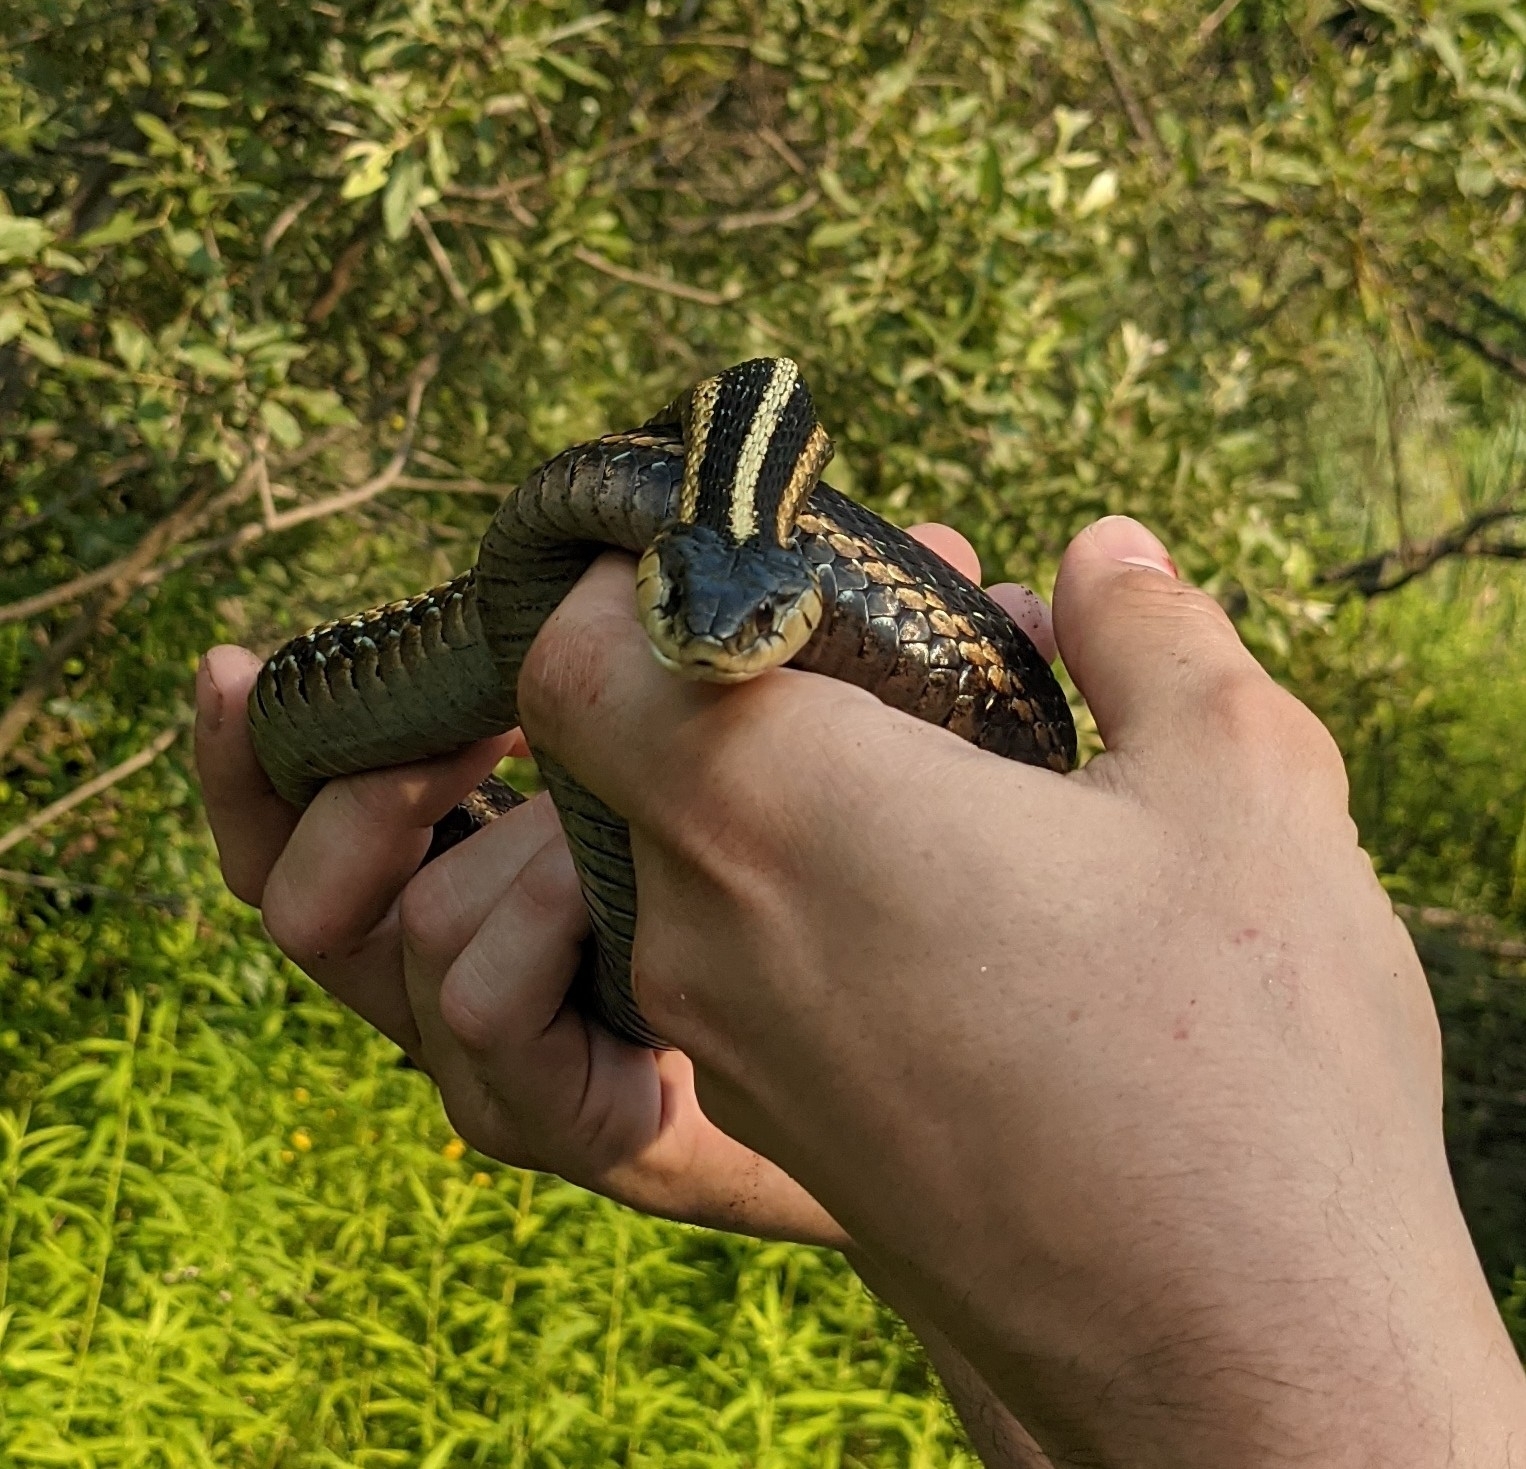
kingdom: Animalia
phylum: Chordata
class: Squamata
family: Colubridae
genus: Thamnophis
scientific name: Thamnophis sirtalis
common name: Common garter snake
